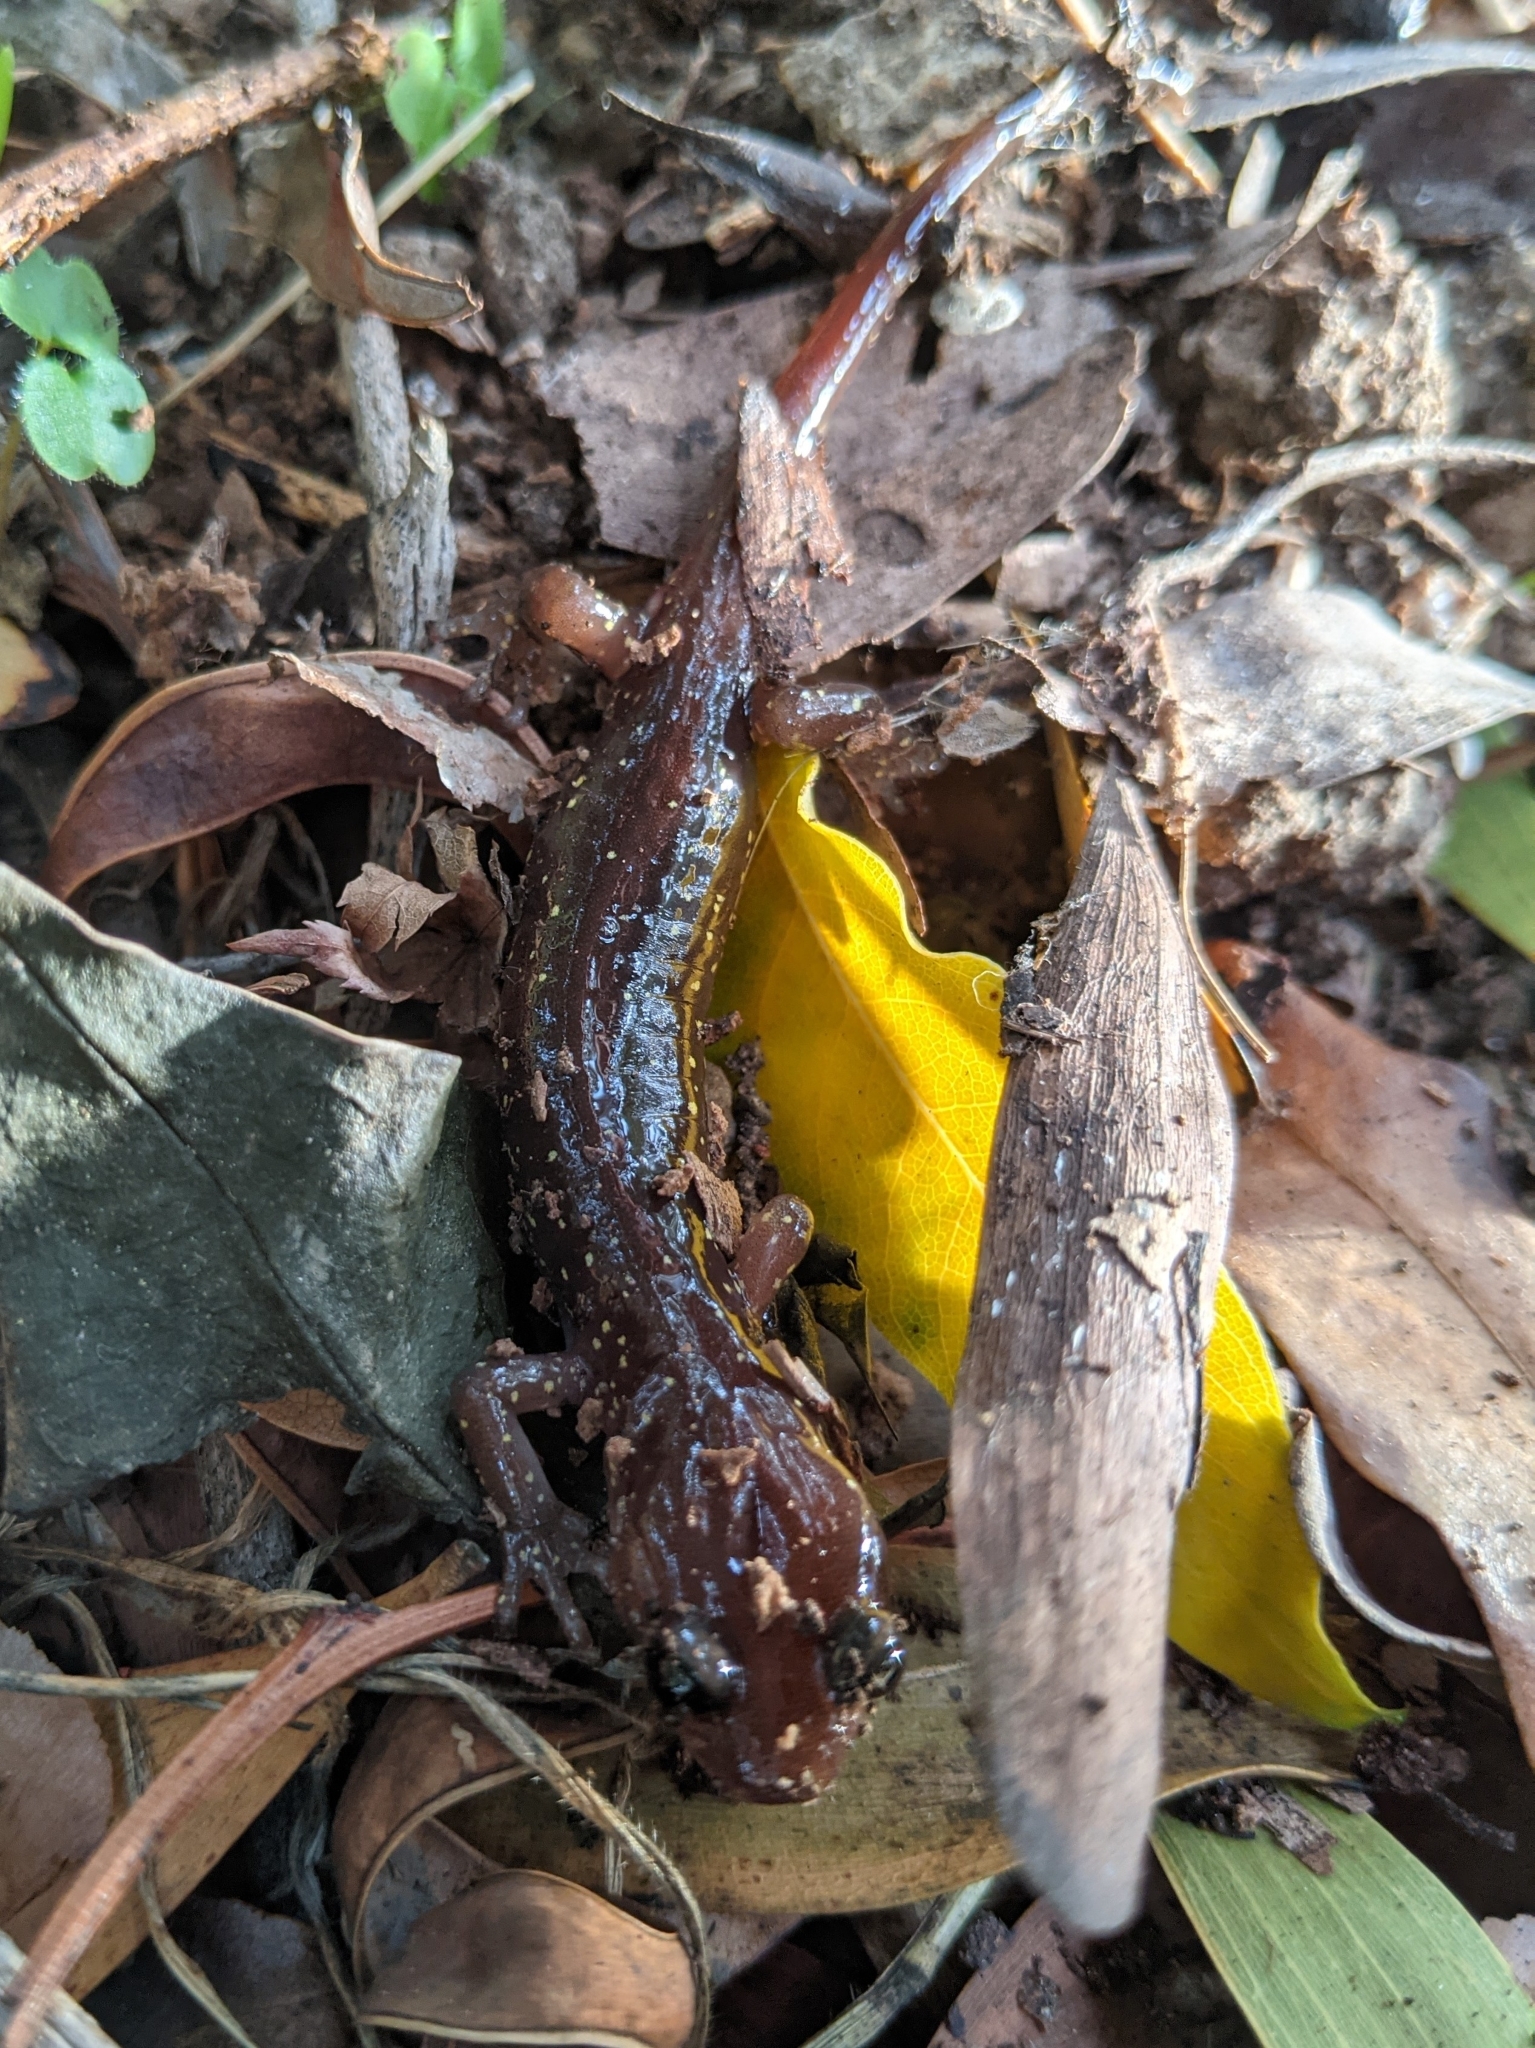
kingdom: Animalia
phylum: Chordata
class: Amphibia
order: Caudata
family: Plethodontidae
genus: Aneides
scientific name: Aneides lugubris
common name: Arboreal salamander
